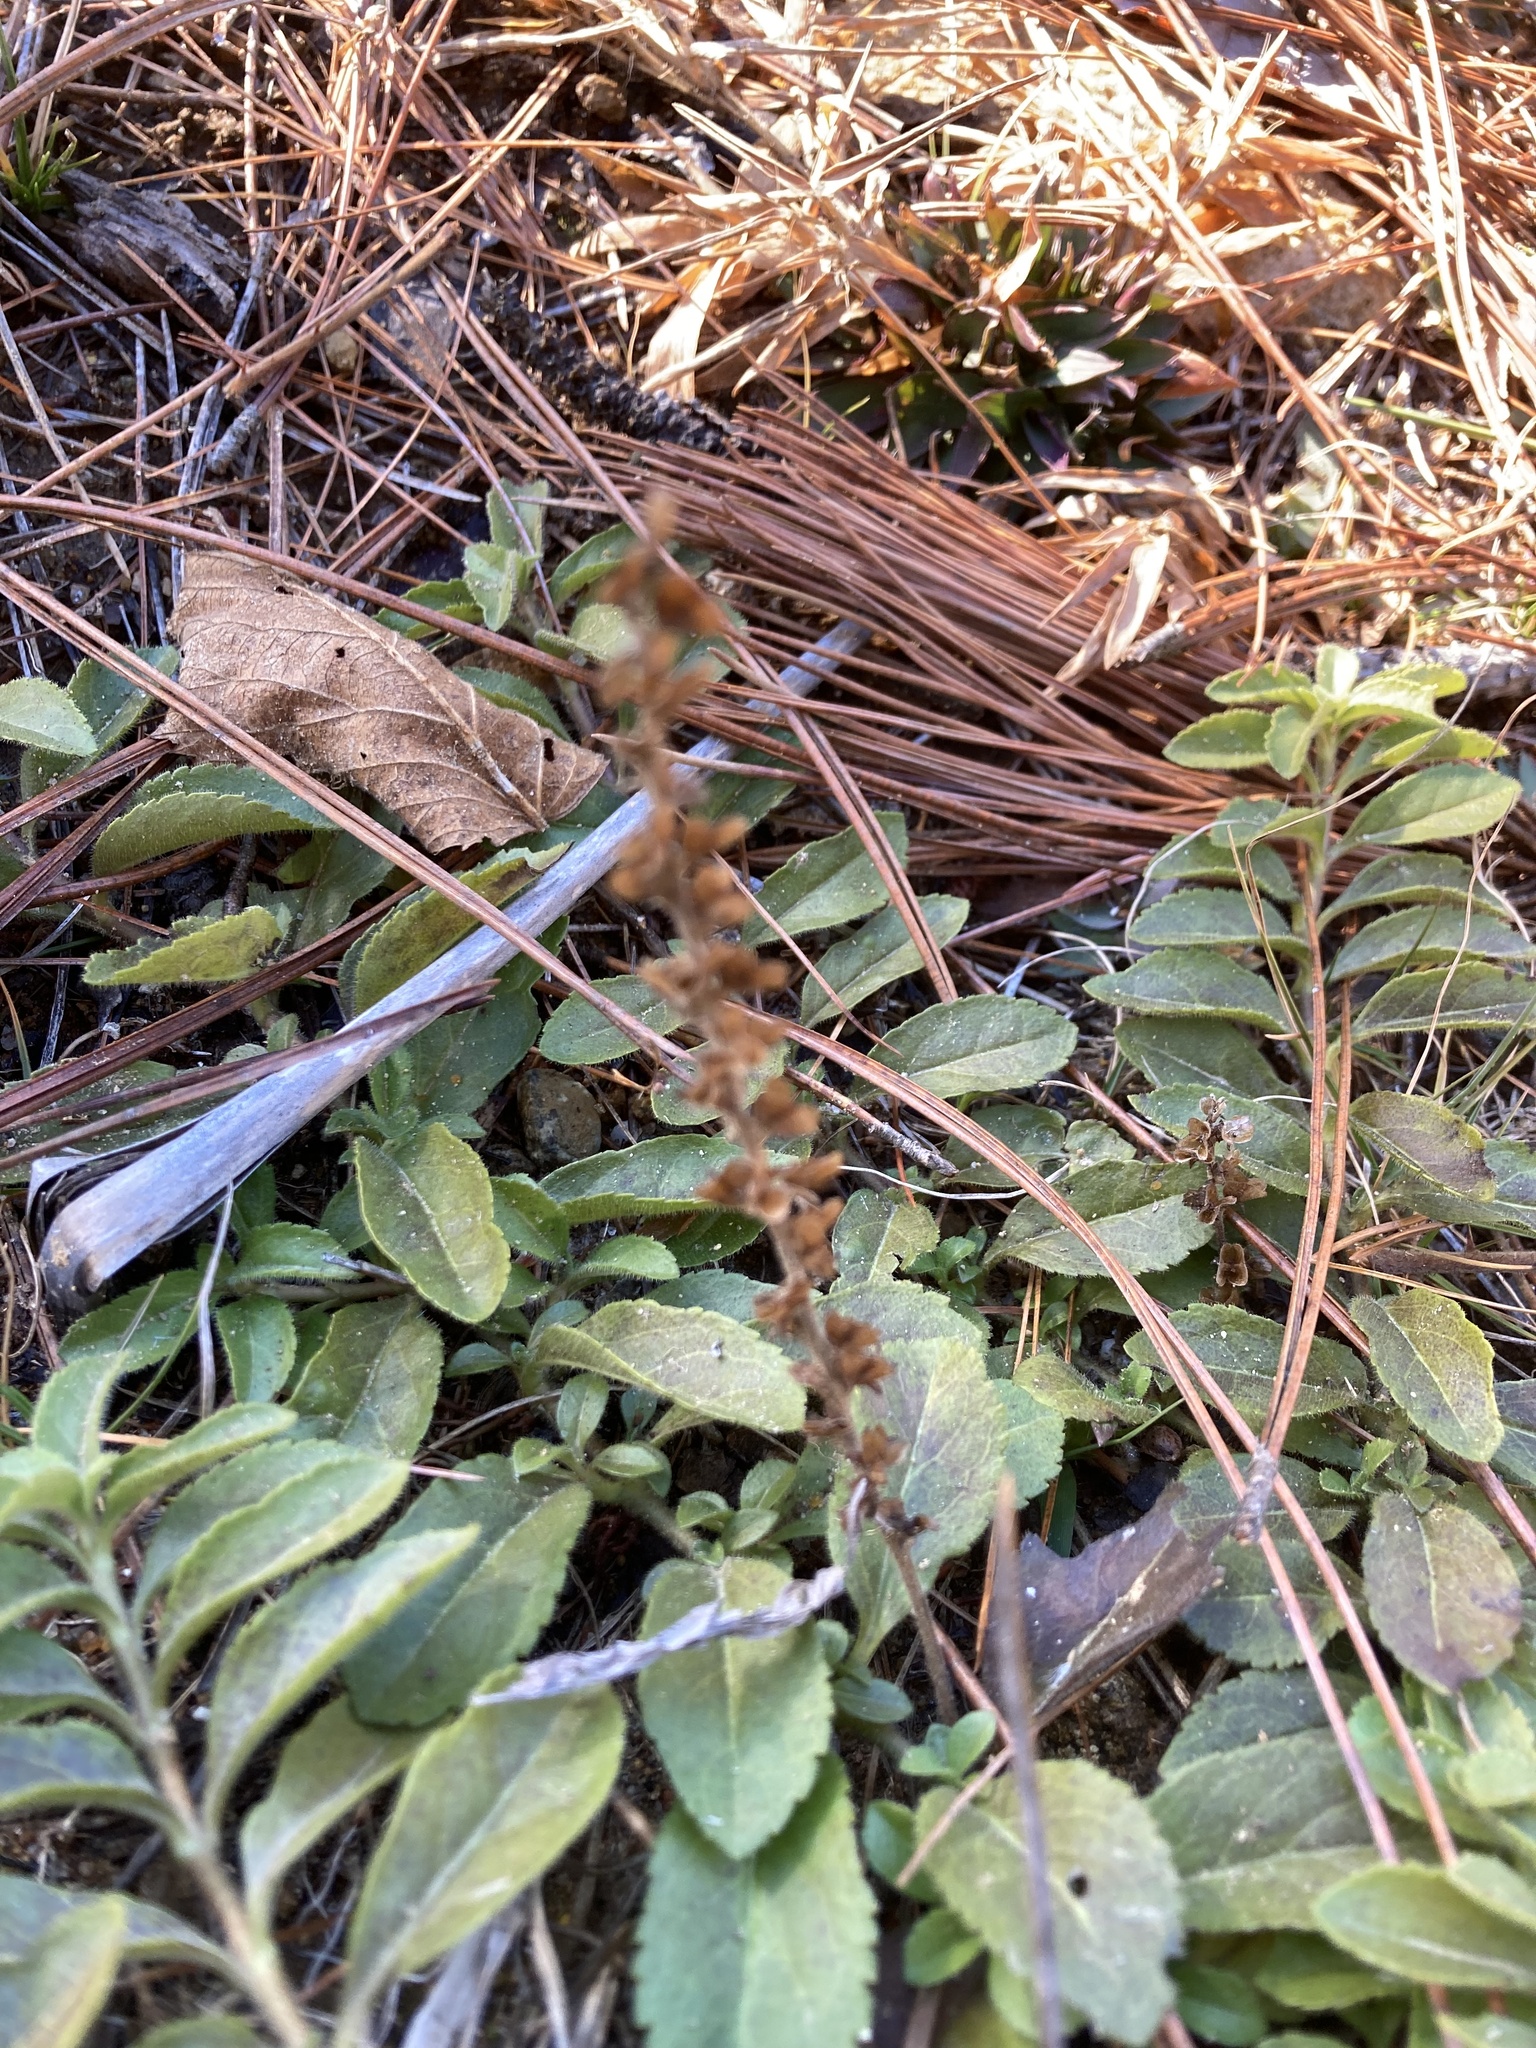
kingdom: Plantae
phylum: Tracheophyta
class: Magnoliopsida
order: Lamiales
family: Plantaginaceae
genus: Veronica
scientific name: Veronica officinalis
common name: Common speedwell
